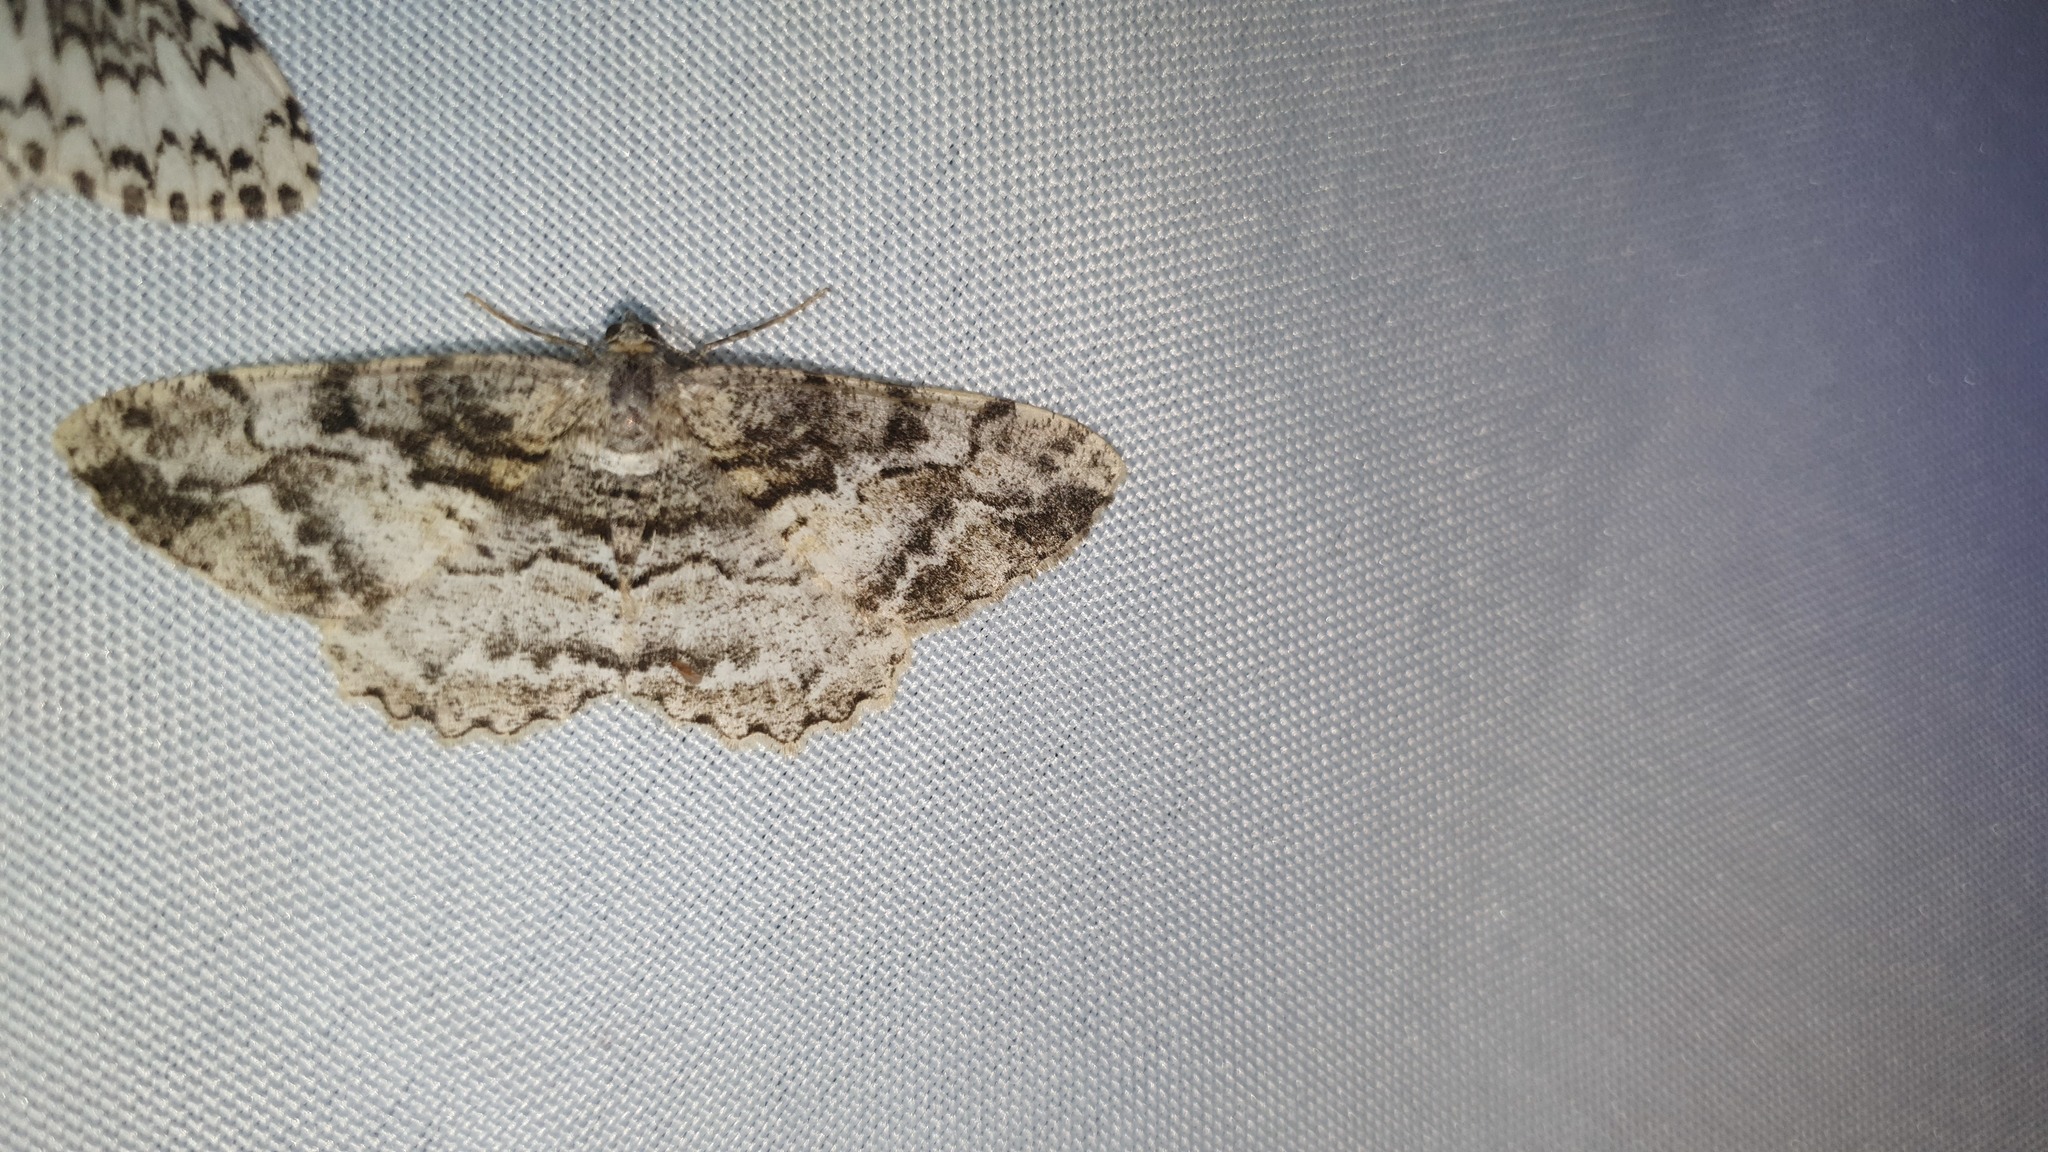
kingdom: Animalia
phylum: Arthropoda
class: Insecta
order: Lepidoptera
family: Geometridae
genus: Alcis
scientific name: Alcis repandata
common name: Mottled beauty
